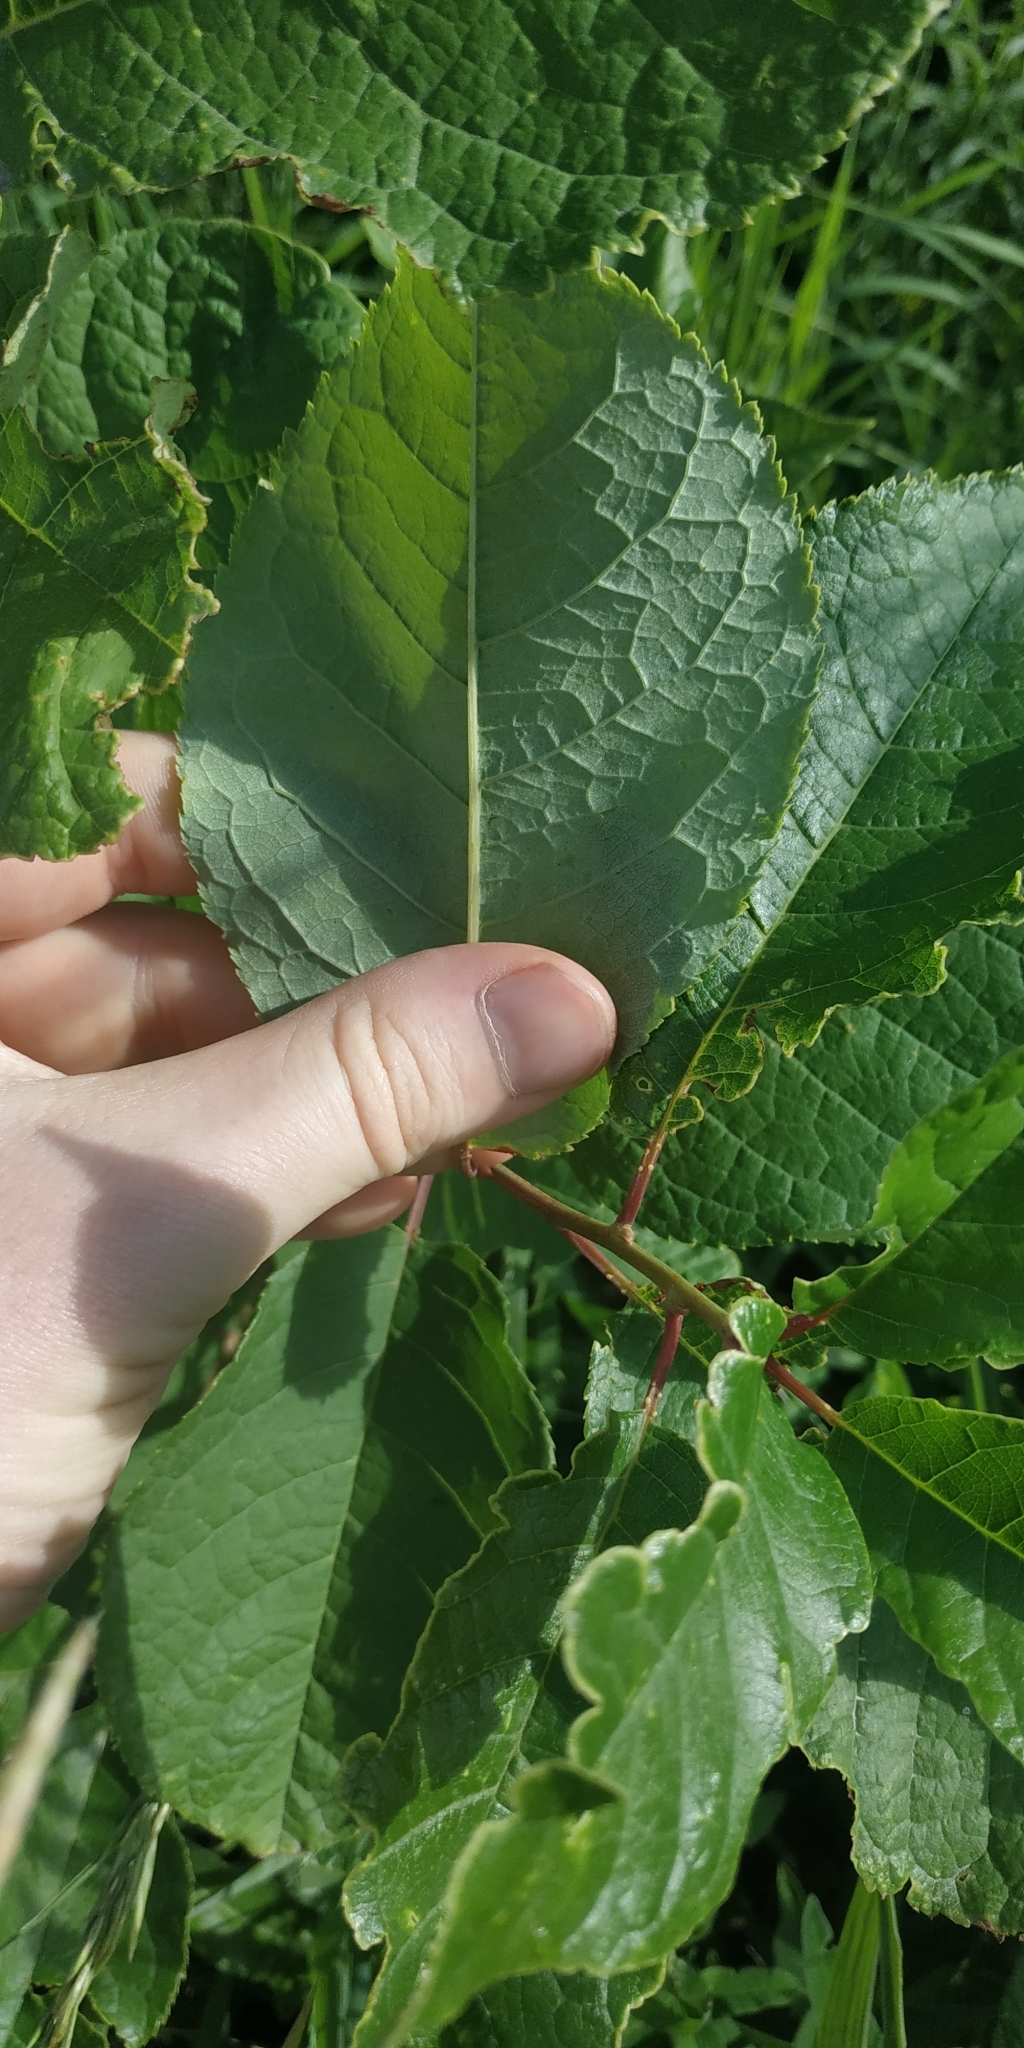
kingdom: Plantae
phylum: Tracheophyta
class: Magnoliopsida
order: Rosales
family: Rosaceae
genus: Prunus
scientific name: Prunus padus
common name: Bird cherry
